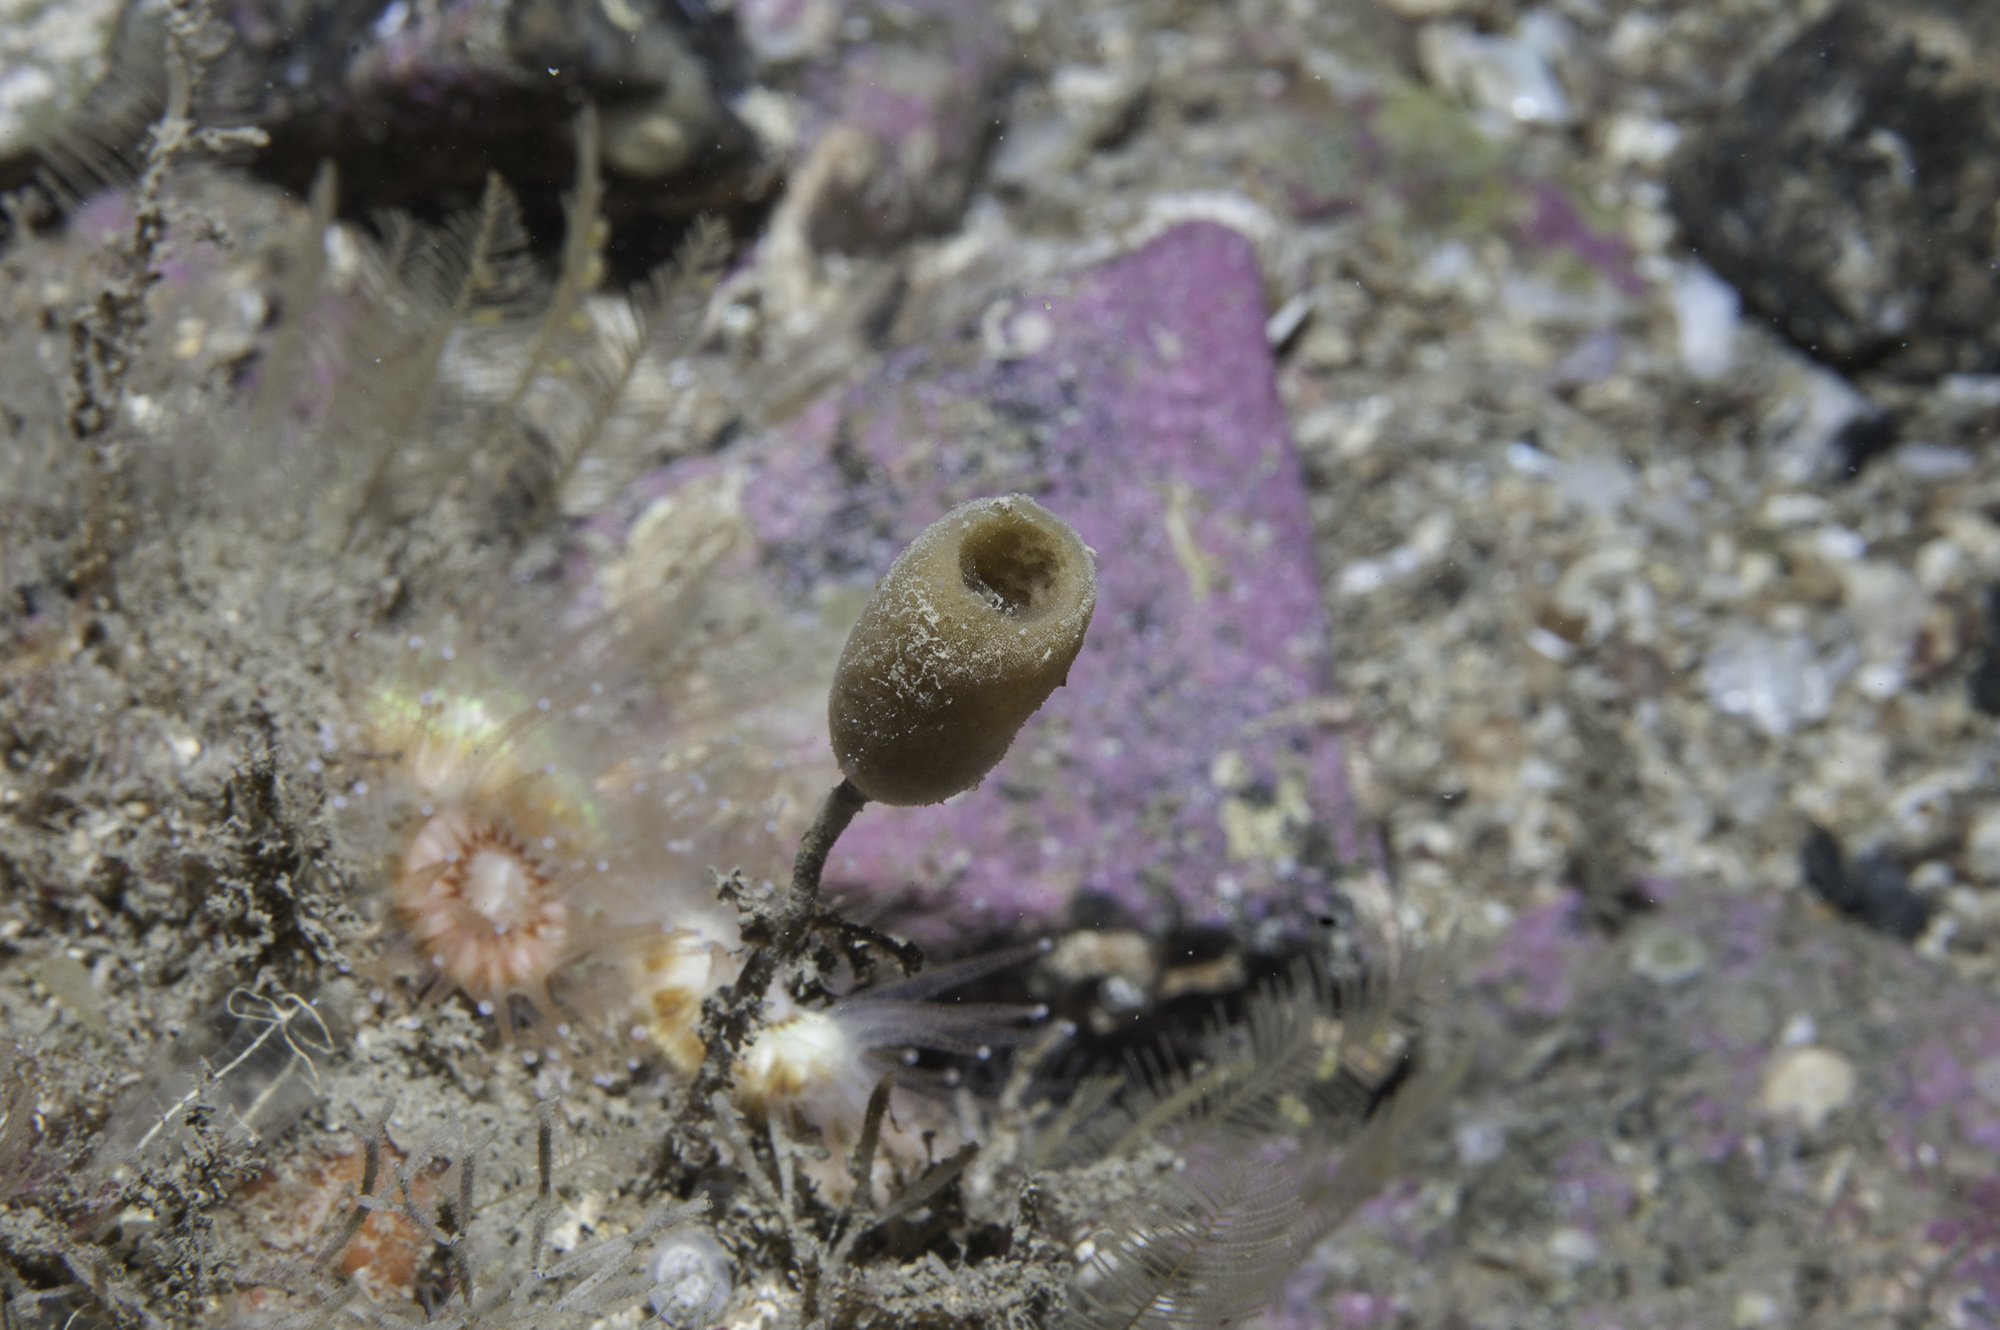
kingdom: Animalia
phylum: Porifera
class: Demospongiae
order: Haplosclerida
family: Chalinidae
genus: Haliclona
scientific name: Haliclona urceolus
